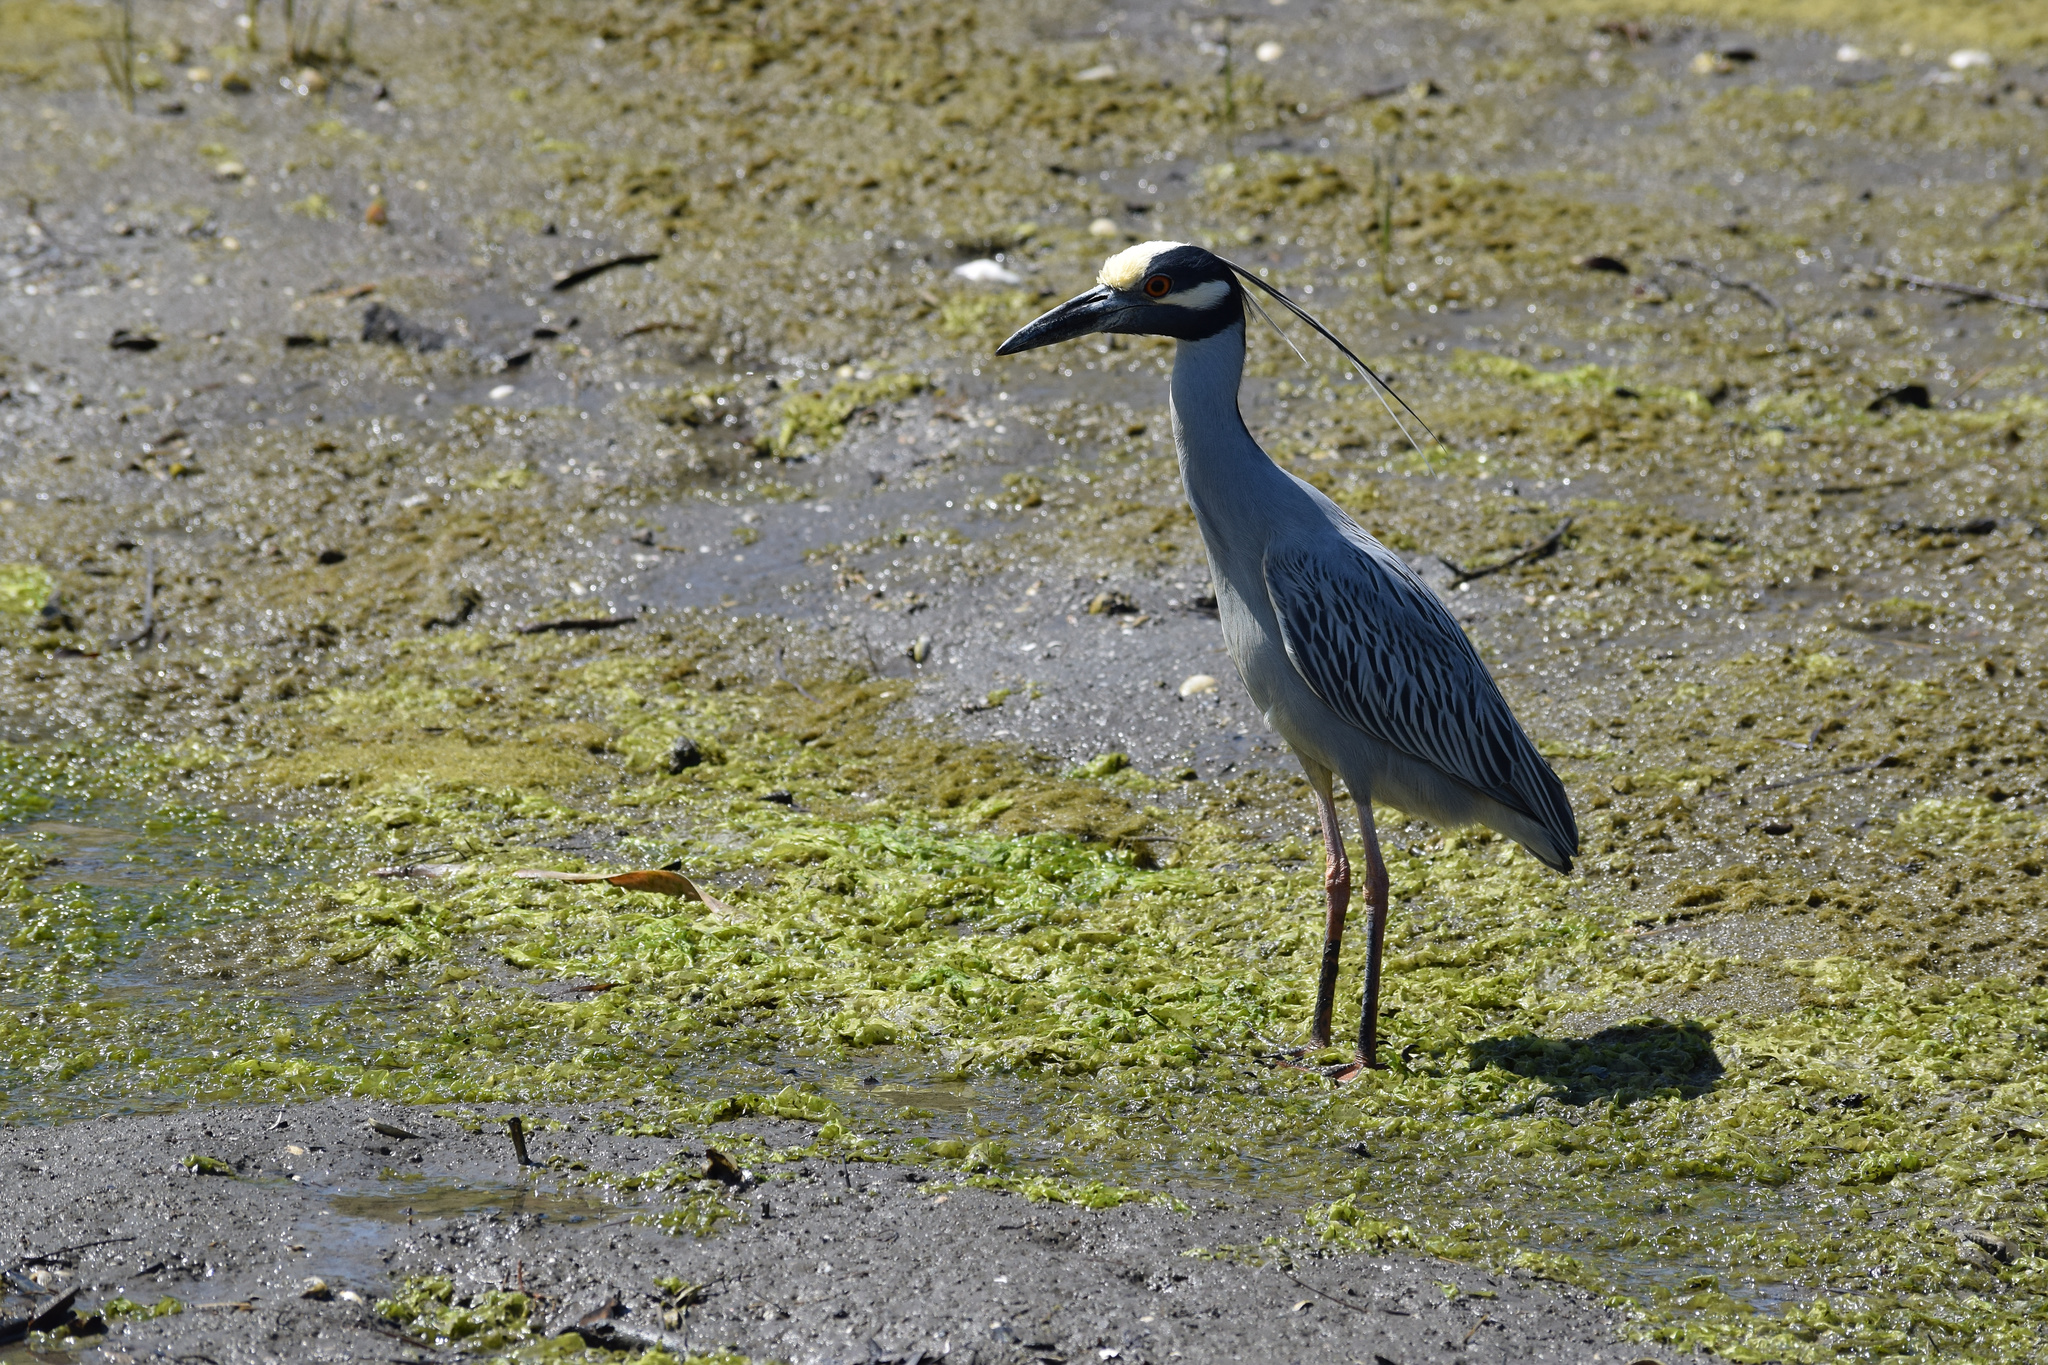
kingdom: Animalia
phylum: Chordata
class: Aves
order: Pelecaniformes
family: Ardeidae
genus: Nyctanassa
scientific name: Nyctanassa violacea
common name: Yellow-crowned night heron
